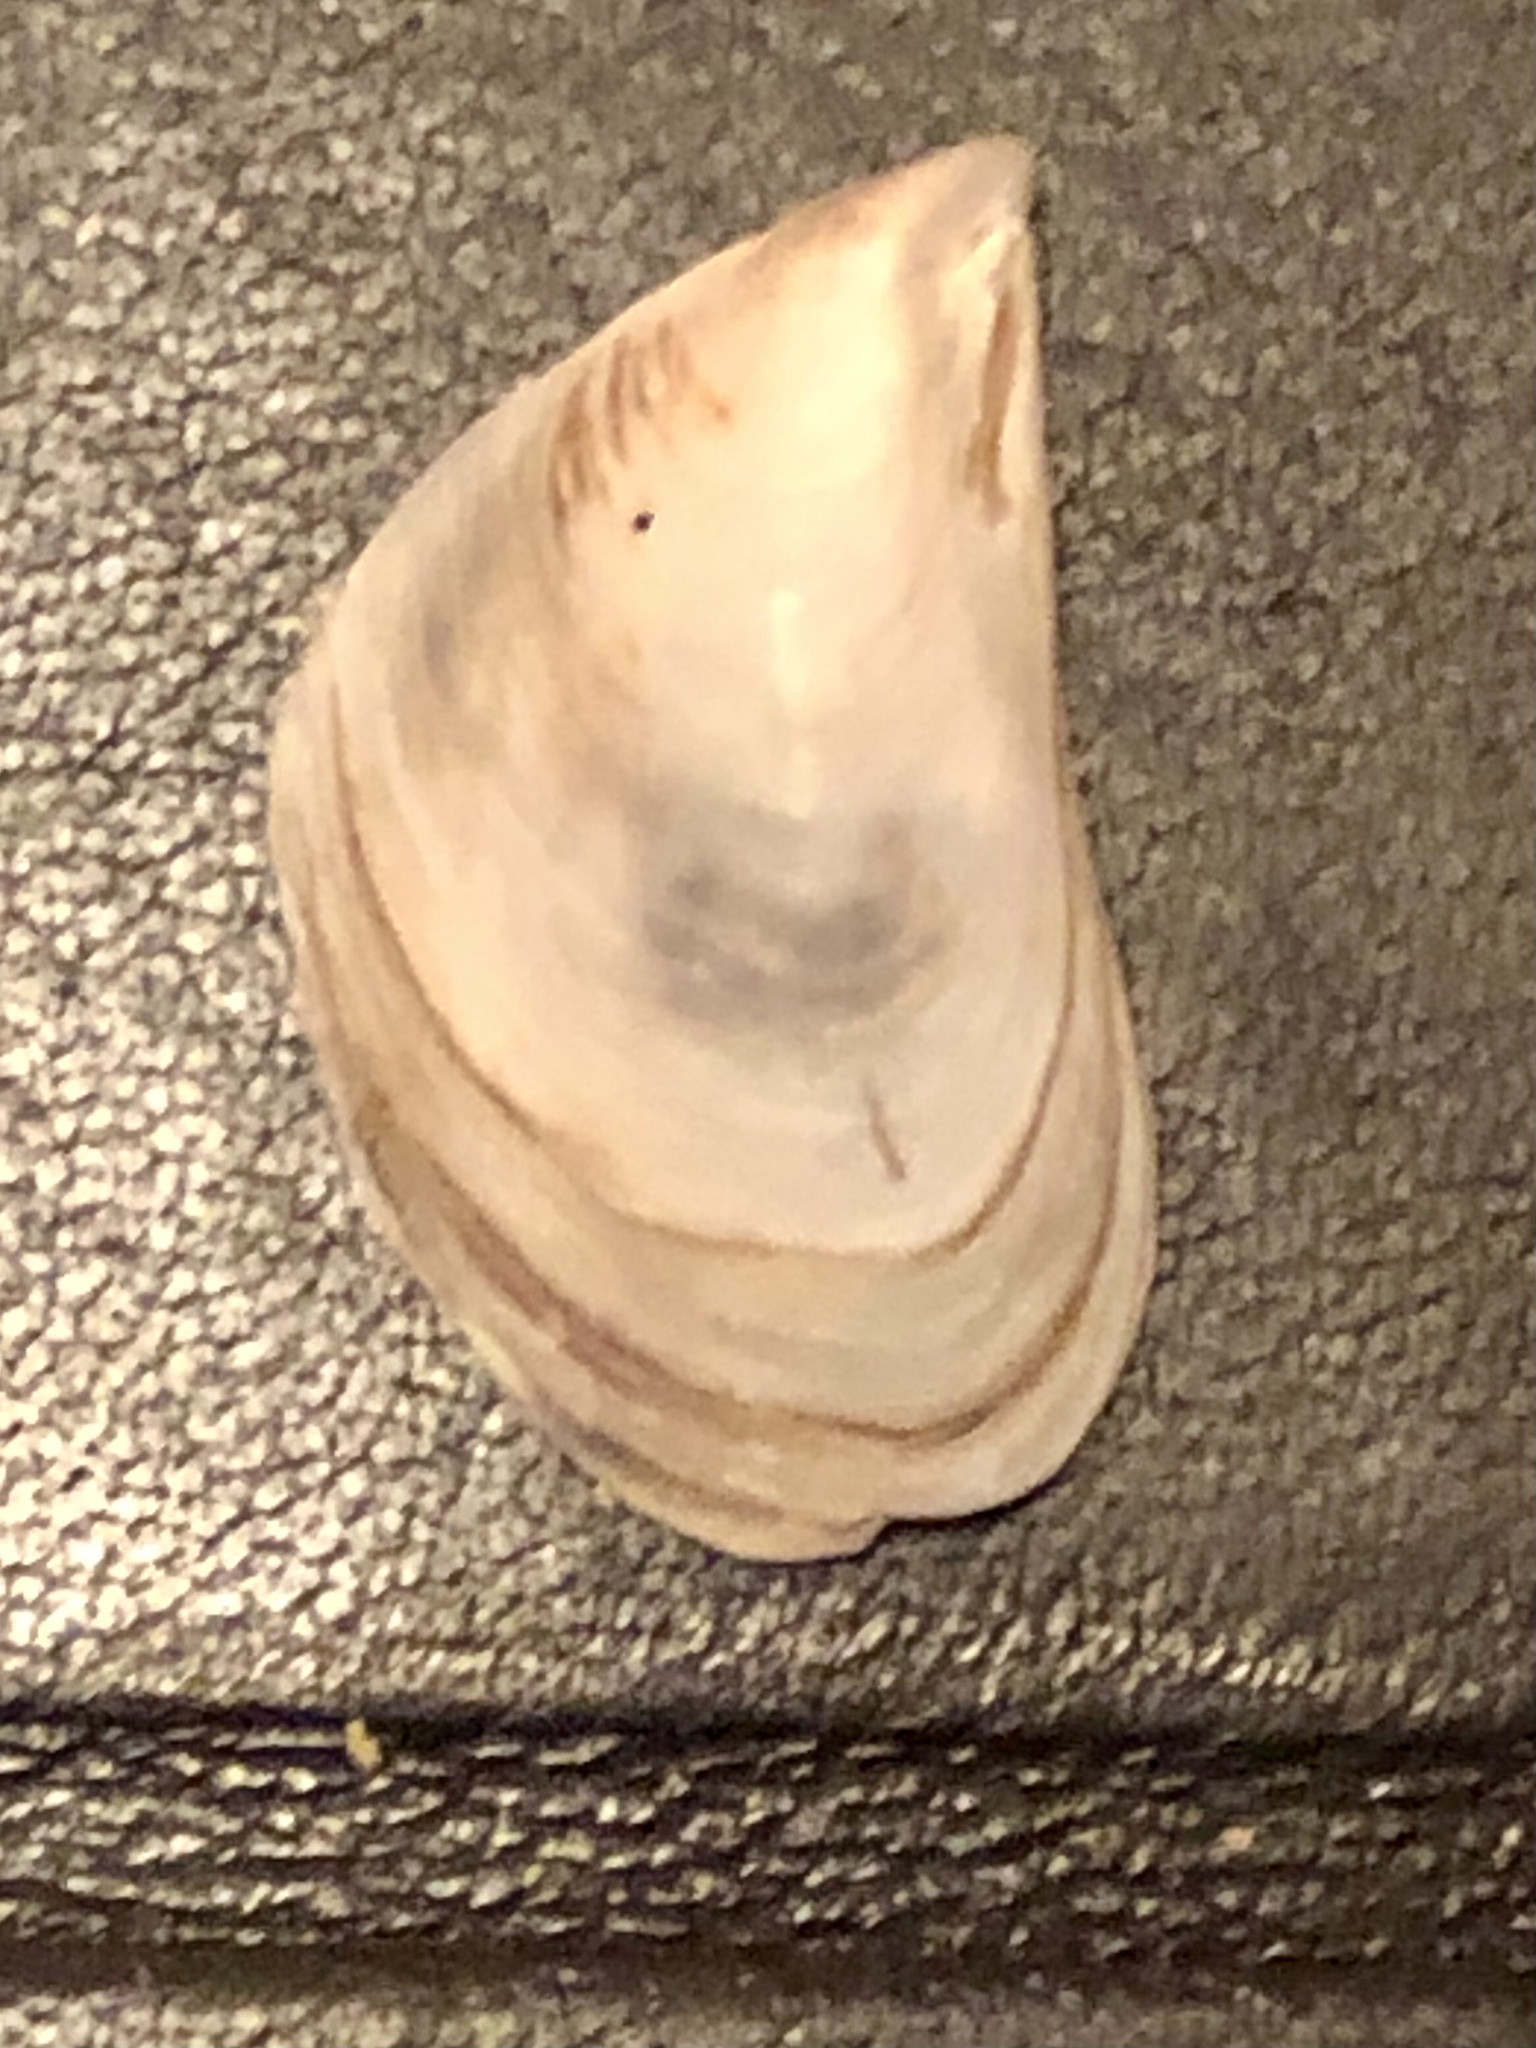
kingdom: Animalia
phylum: Mollusca
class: Bivalvia
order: Myida
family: Dreissenidae
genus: Dreissena
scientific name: Dreissena bugensis
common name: Quagga mussel
